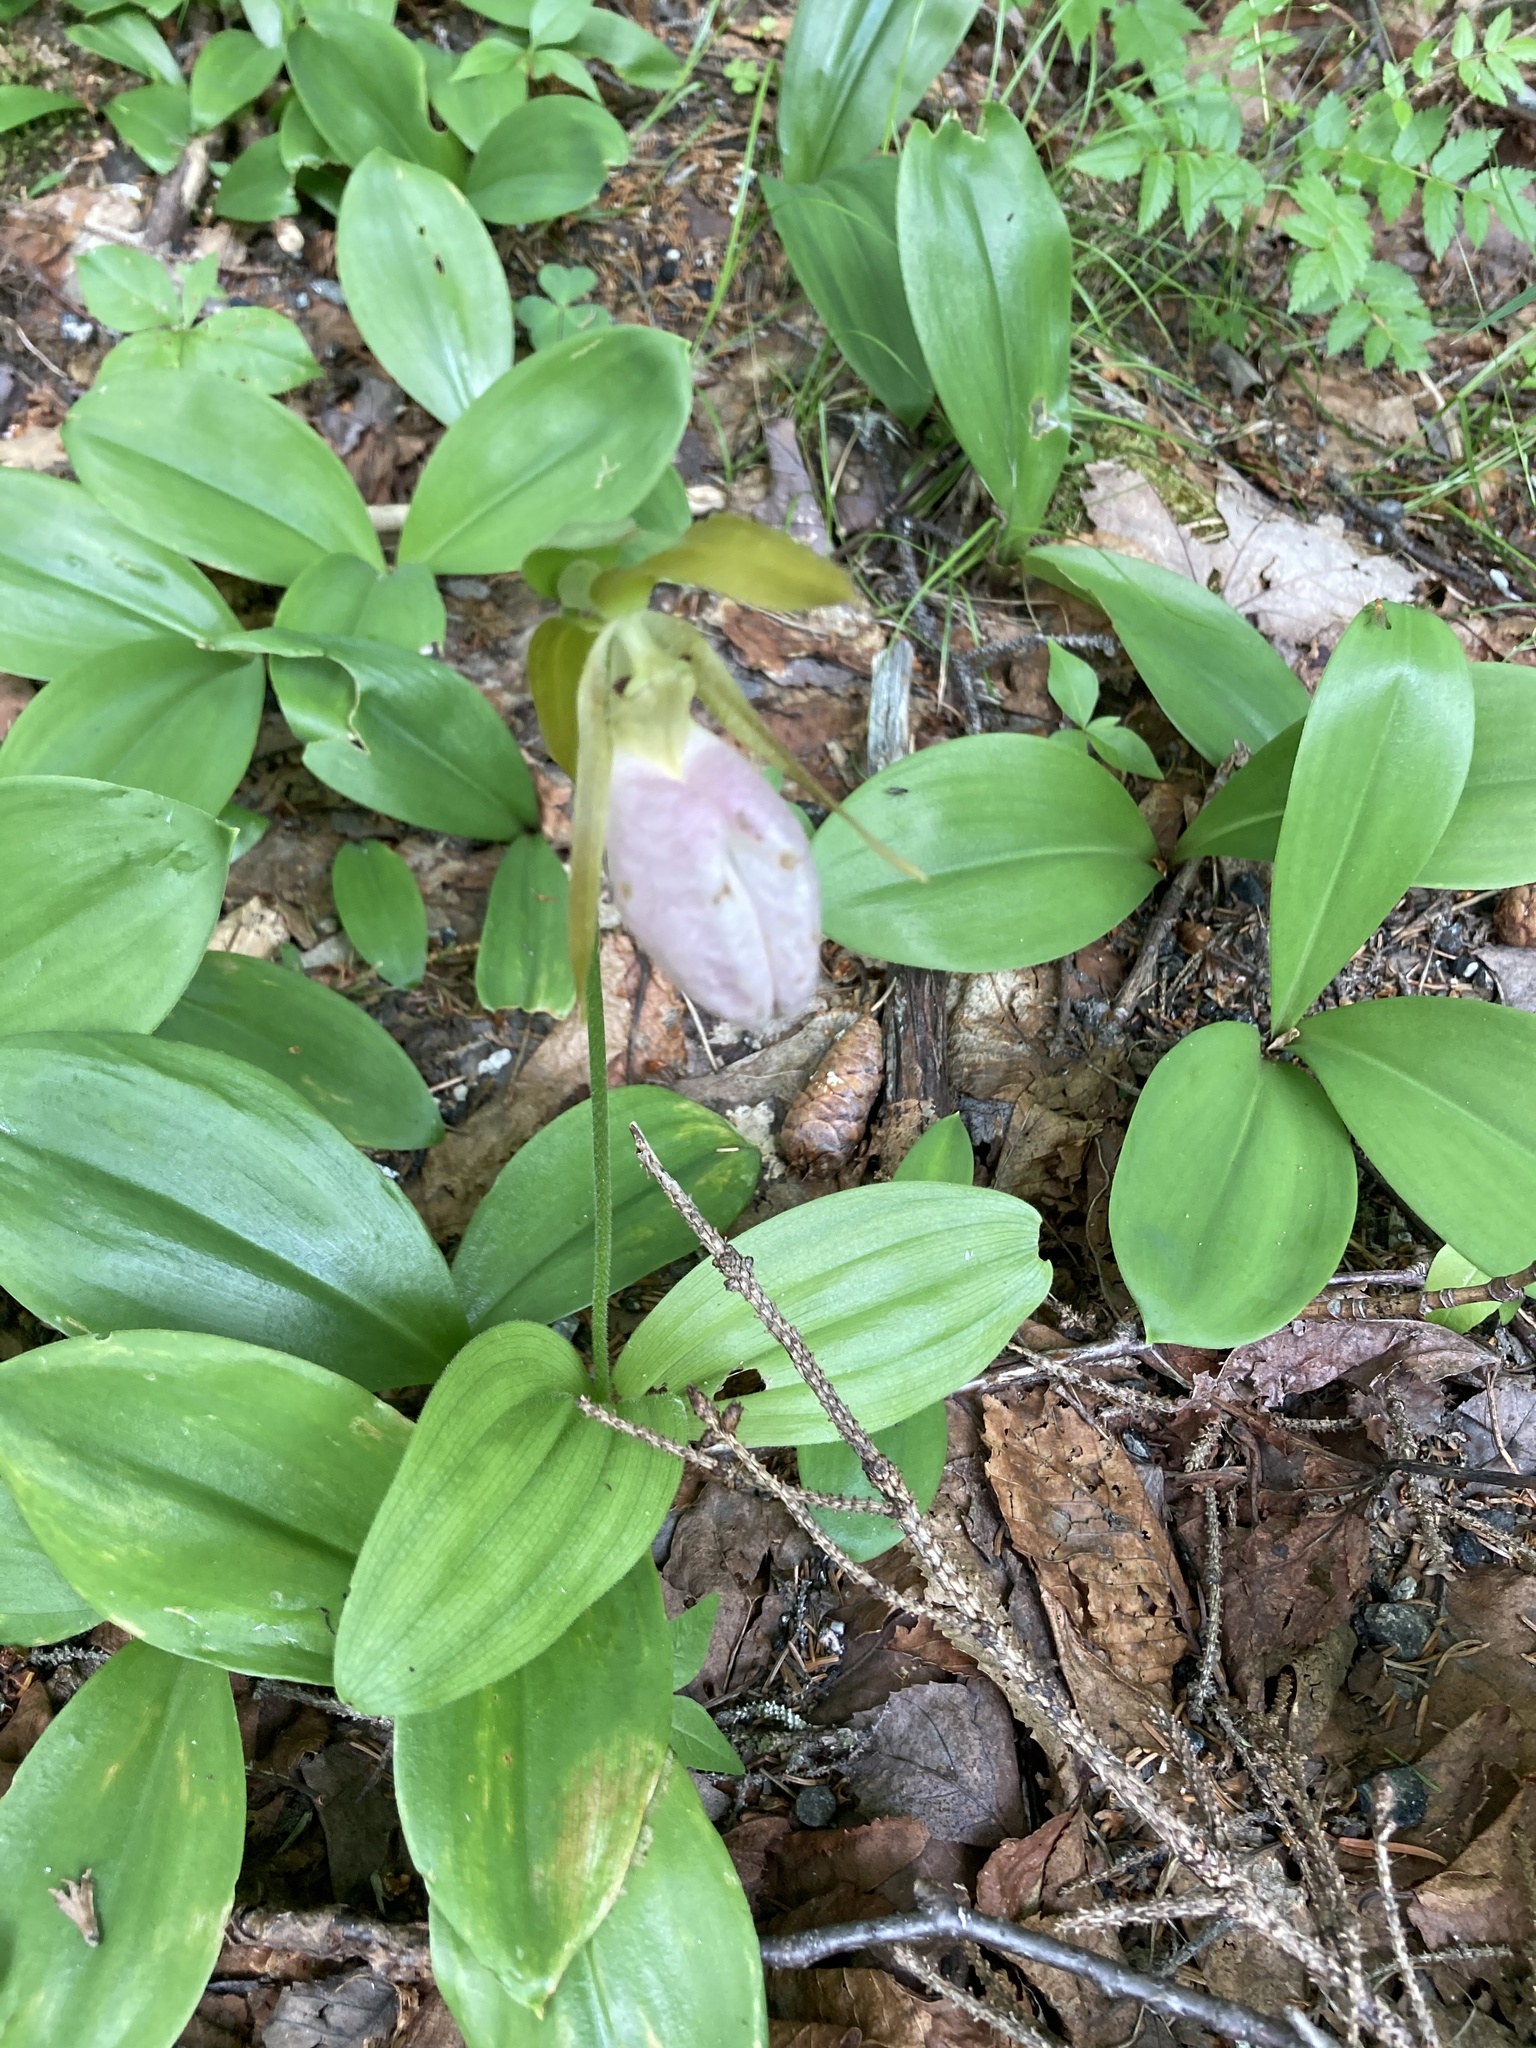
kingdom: Plantae
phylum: Tracheophyta
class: Liliopsida
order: Asparagales
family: Orchidaceae
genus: Cypripedium
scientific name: Cypripedium acaule
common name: Pink lady's-slipper
